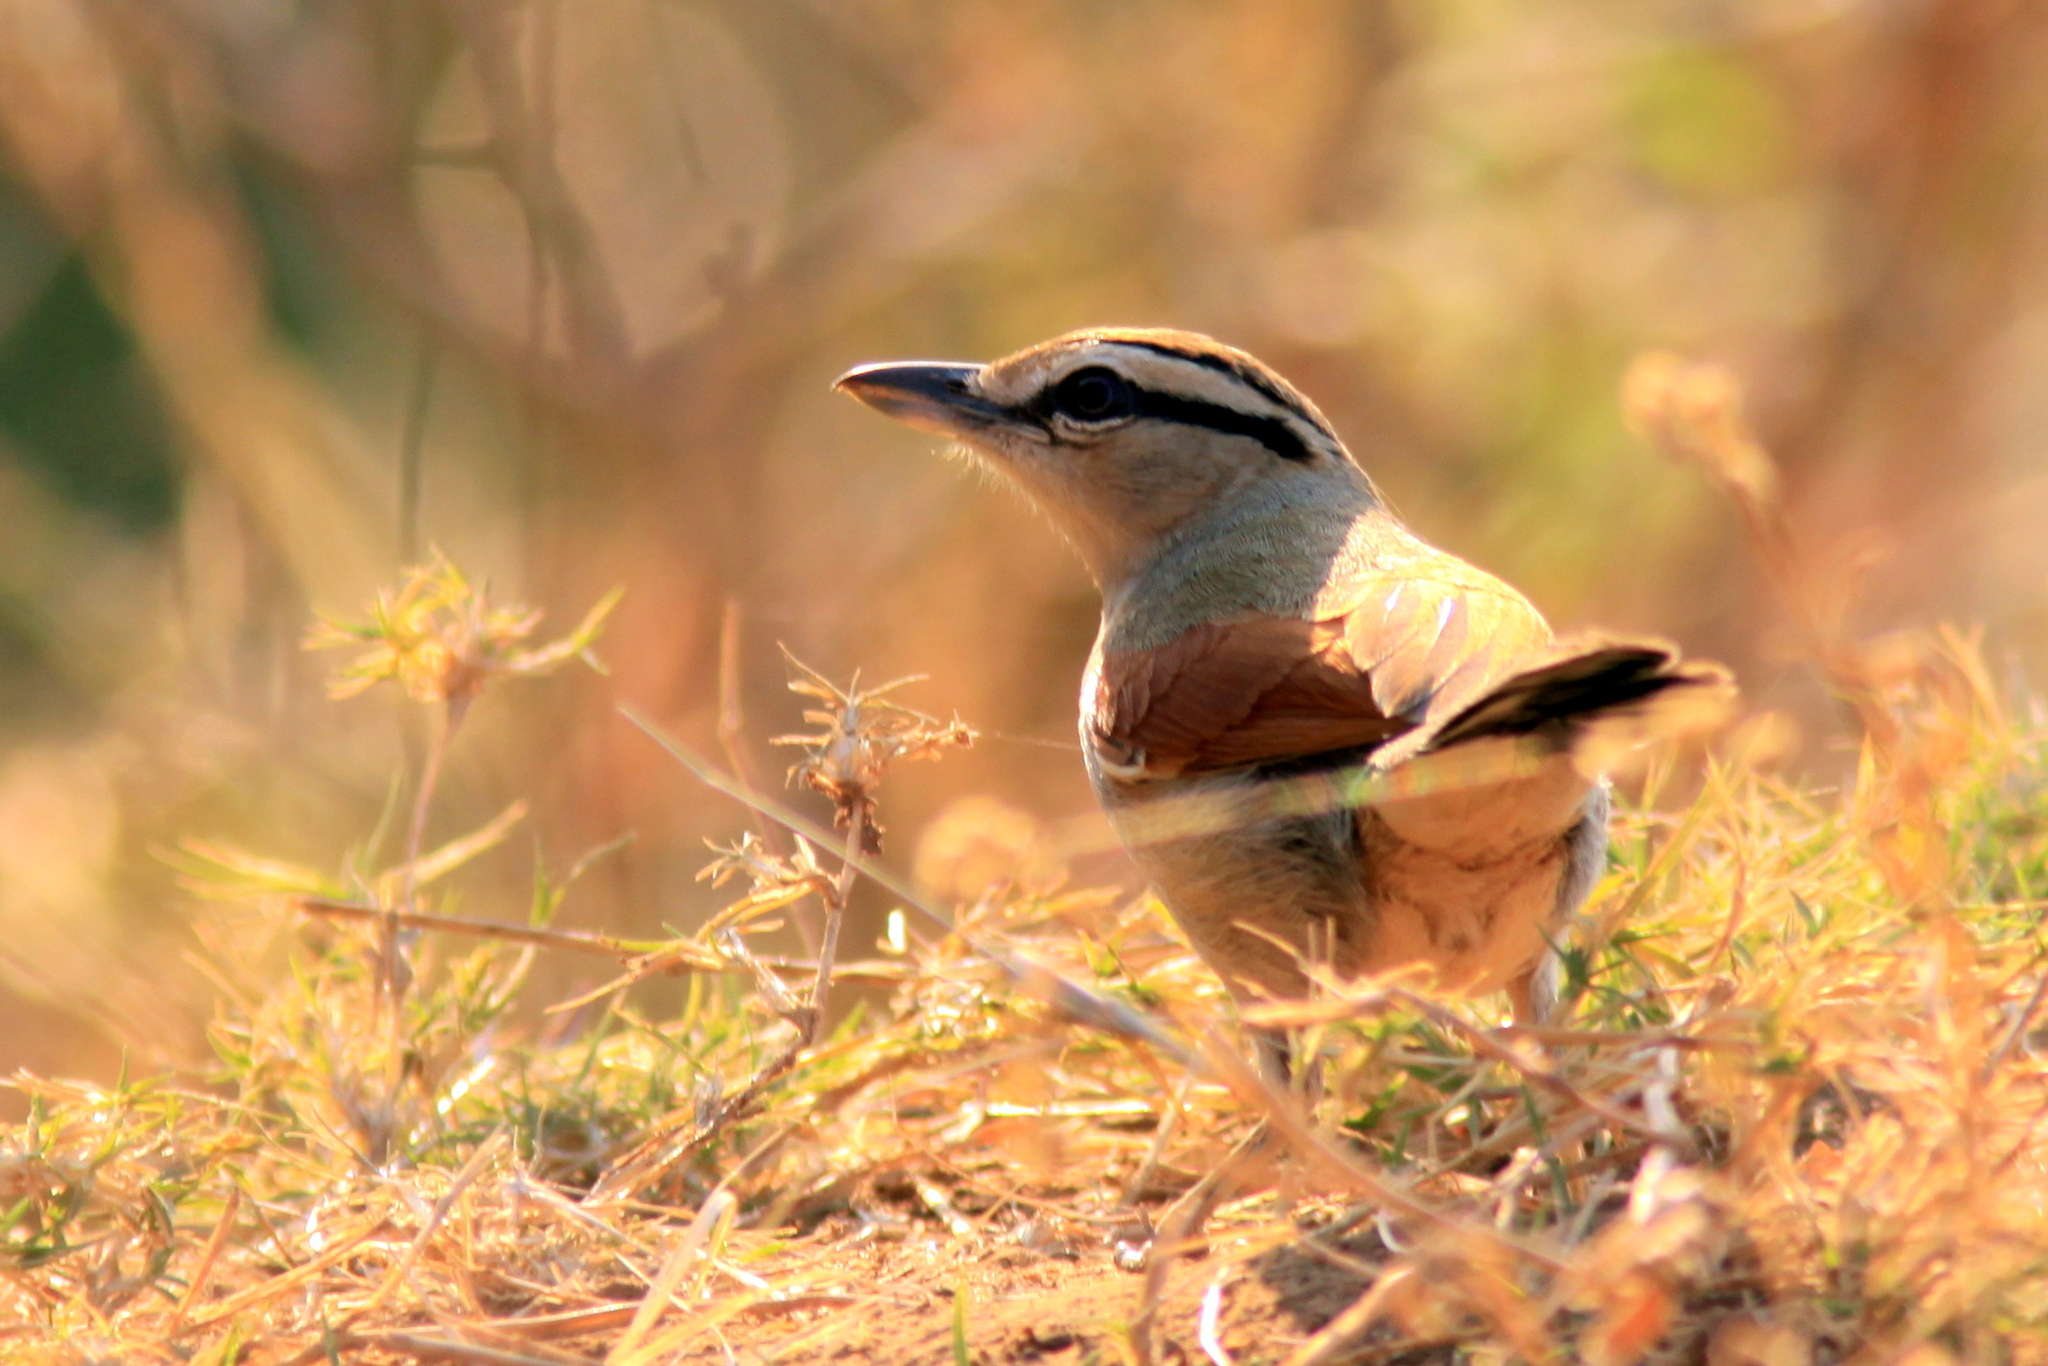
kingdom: Animalia
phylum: Chordata
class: Aves
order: Passeriformes
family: Malaconotidae
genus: Tchagra
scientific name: Tchagra australis
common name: Brown-crowned tchagra
